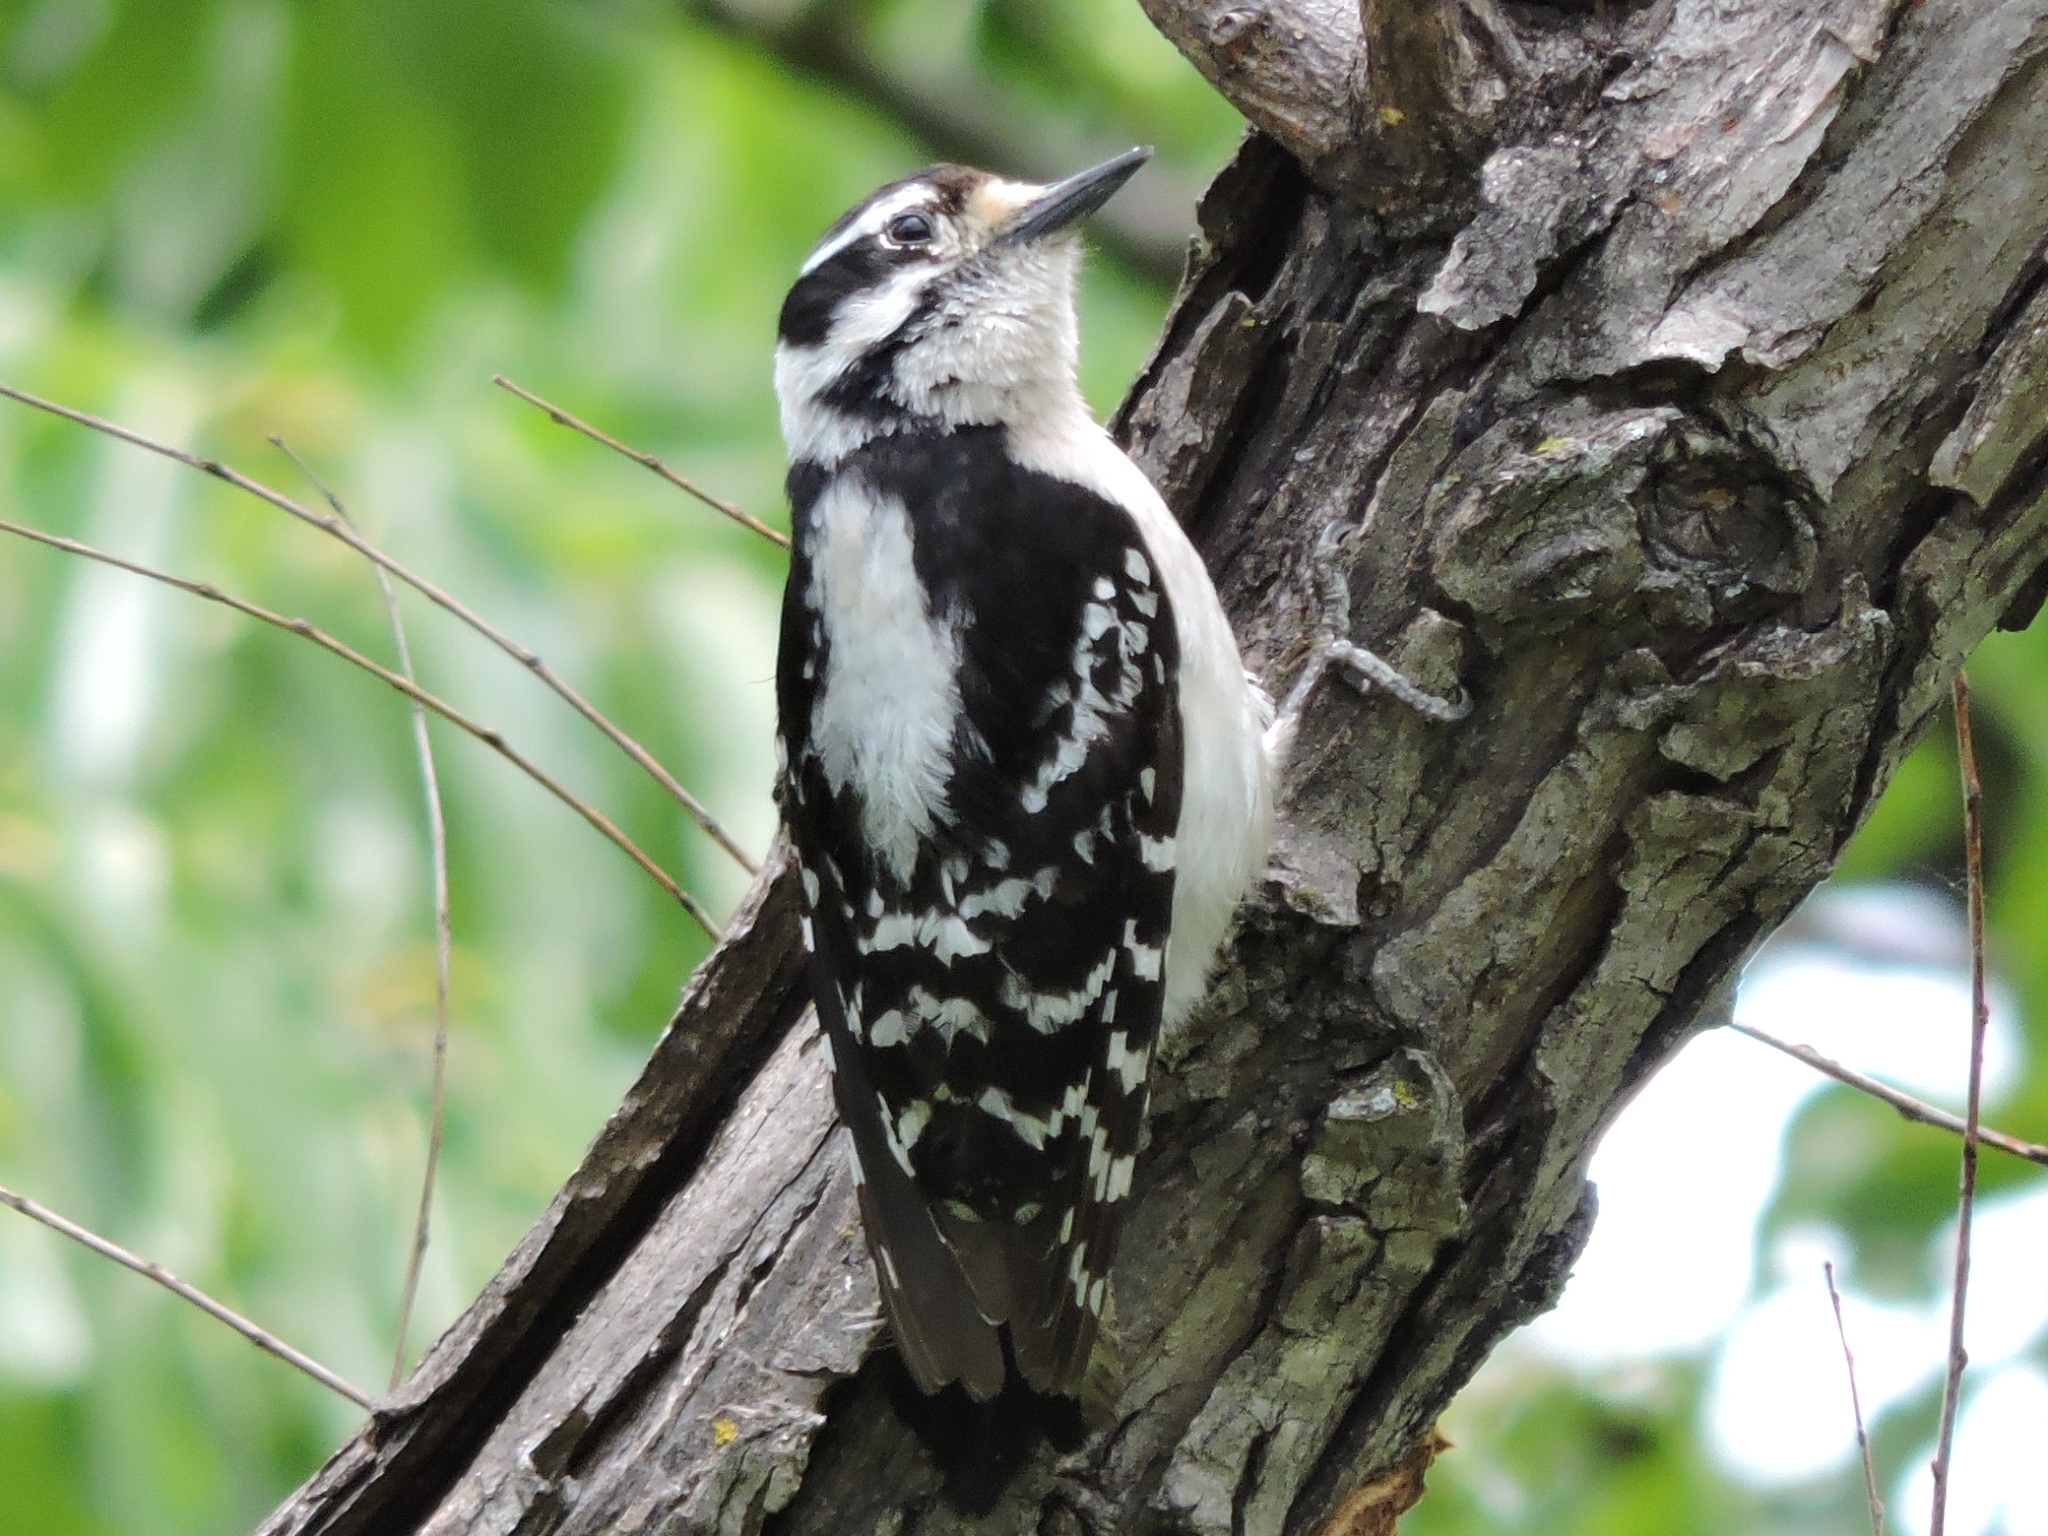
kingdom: Animalia
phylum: Chordata
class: Aves
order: Piciformes
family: Picidae
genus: Dryobates
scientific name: Dryobates pubescens
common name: Downy woodpecker
